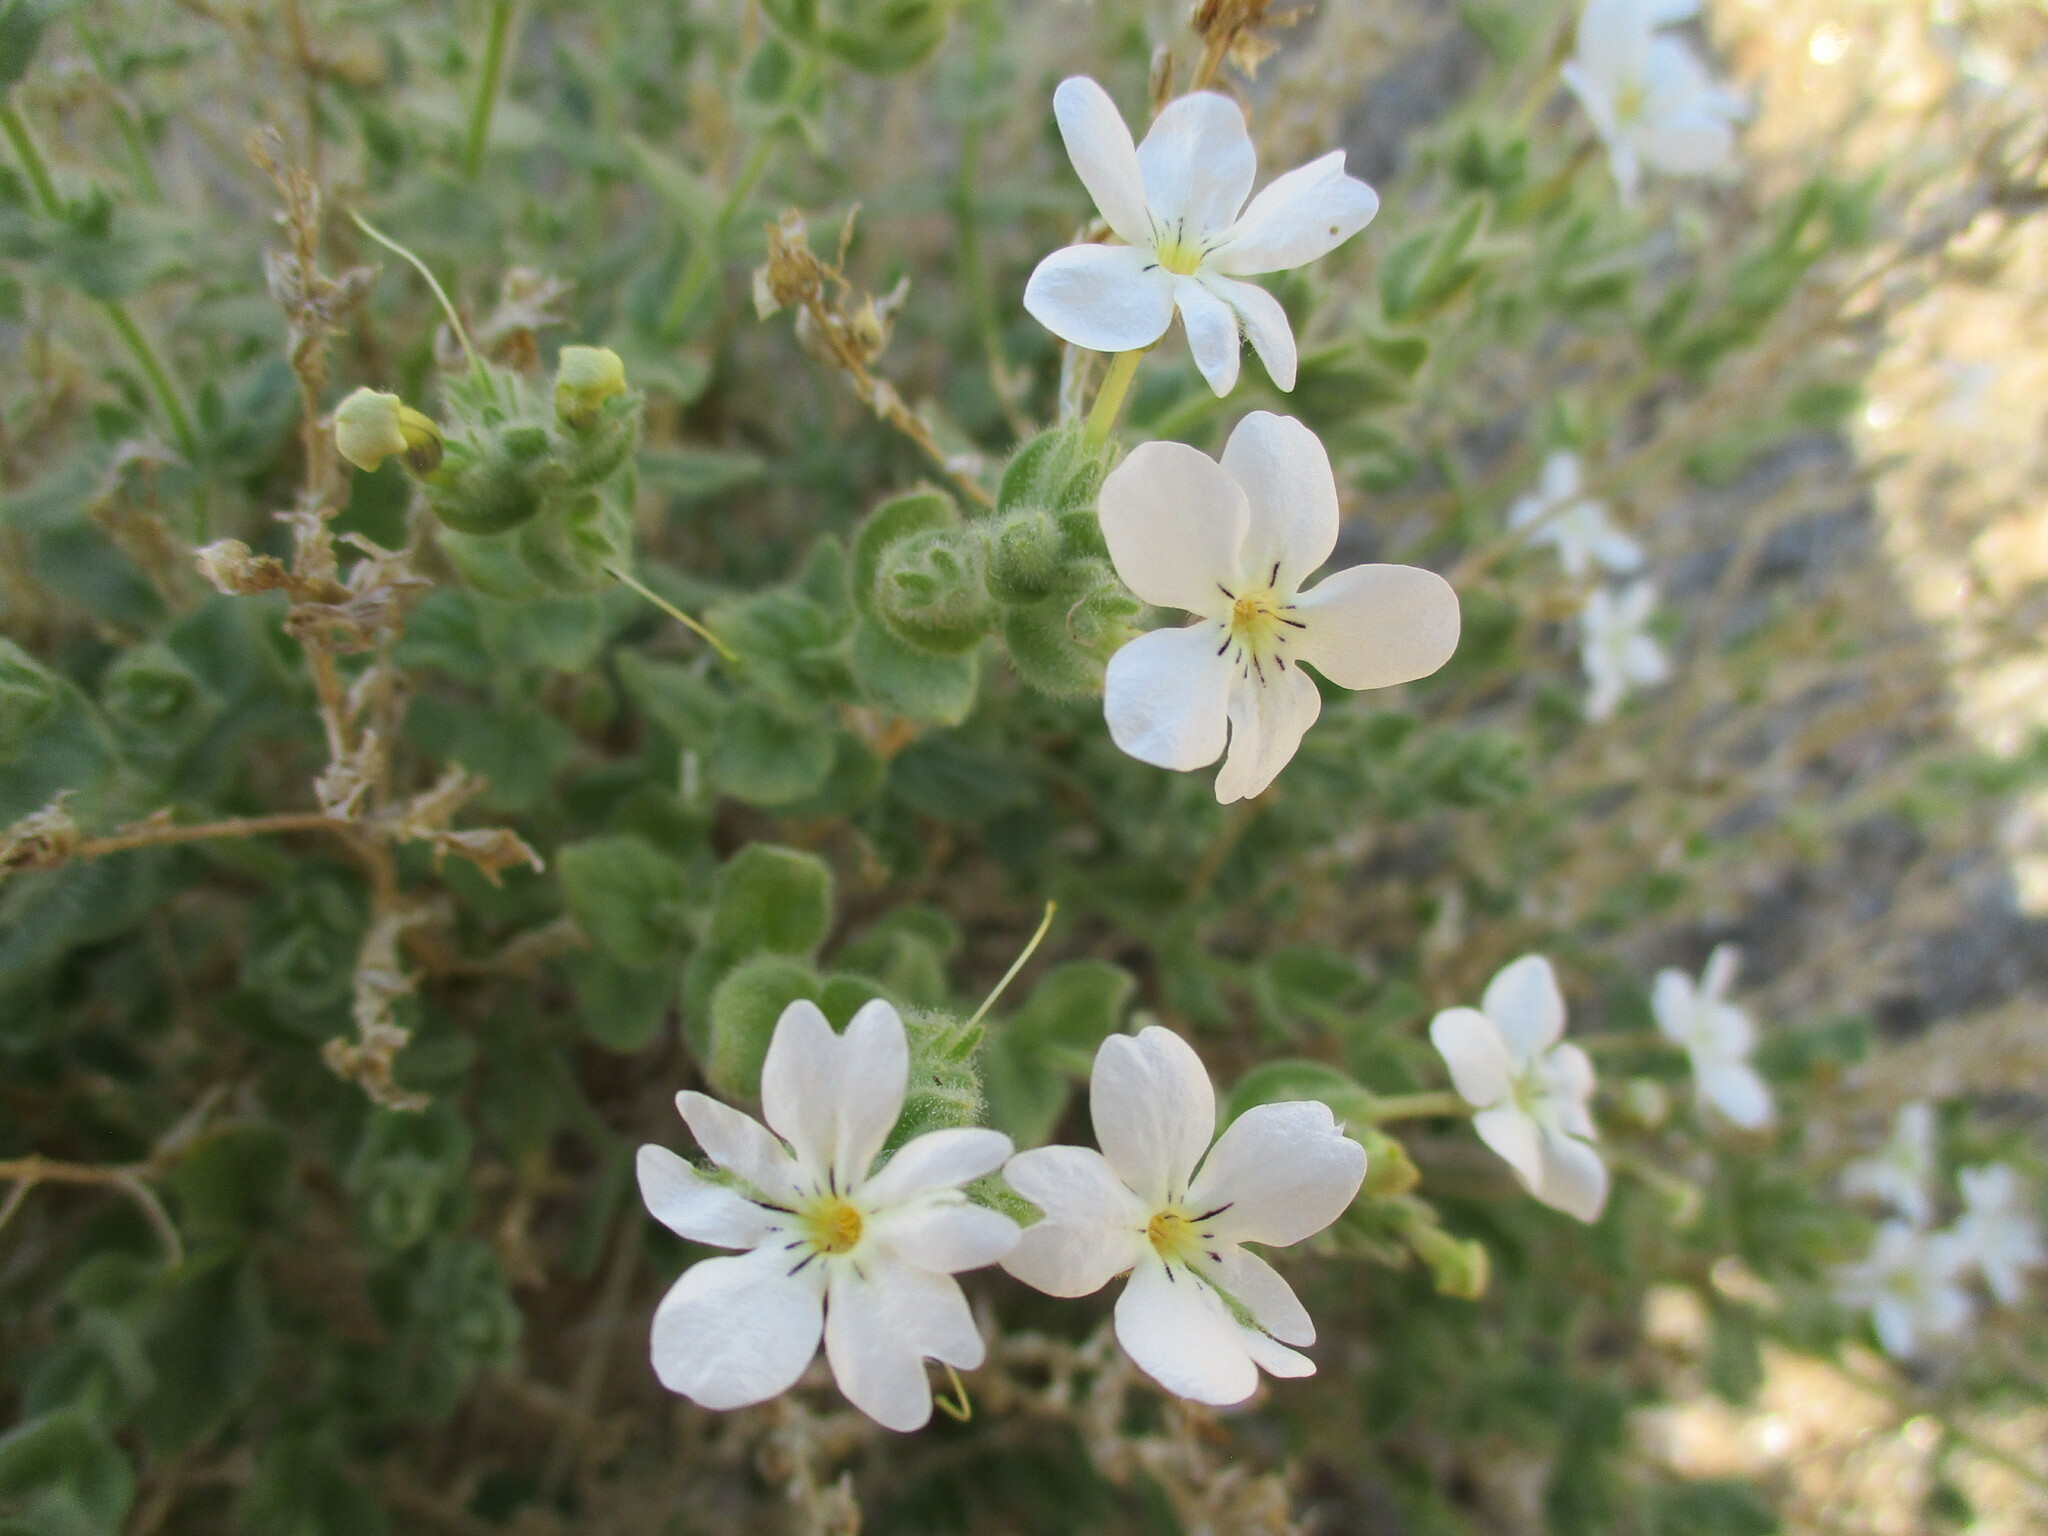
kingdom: Plantae
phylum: Tracheophyta
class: Magnoliopsida
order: Lamiales
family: Scrophulariaceae
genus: Jamesbrittenia
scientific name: Jamesbrittenia maxii
